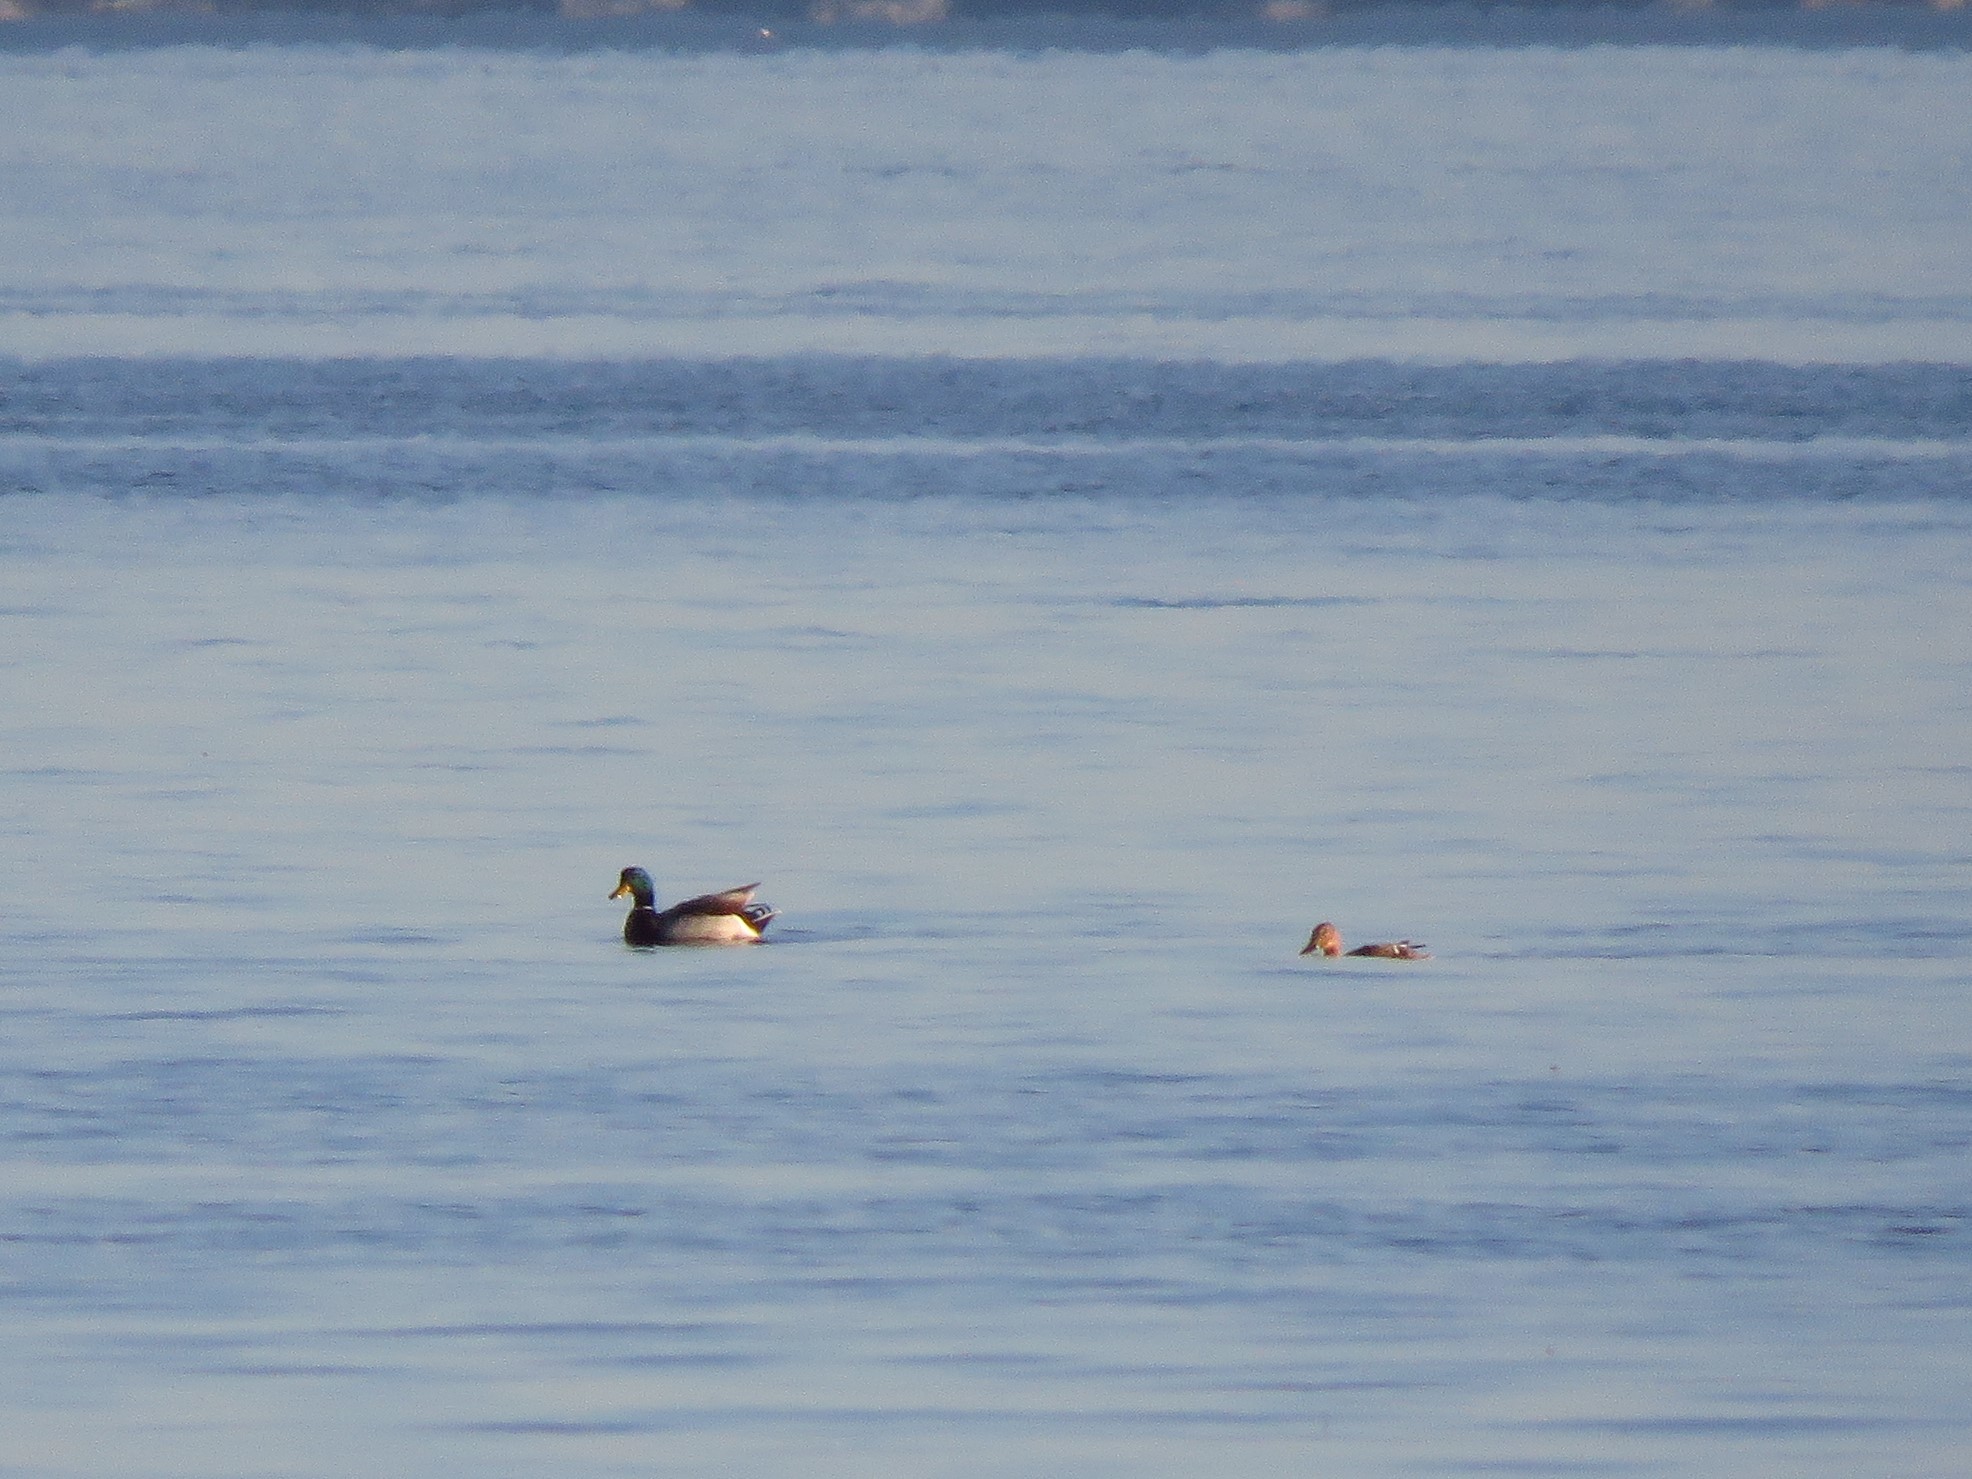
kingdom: Animalia
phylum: Chordata
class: Aves
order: Anseriformes
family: Anatidae
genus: Anas
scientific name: Anas platyrhynchos
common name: Mallard
